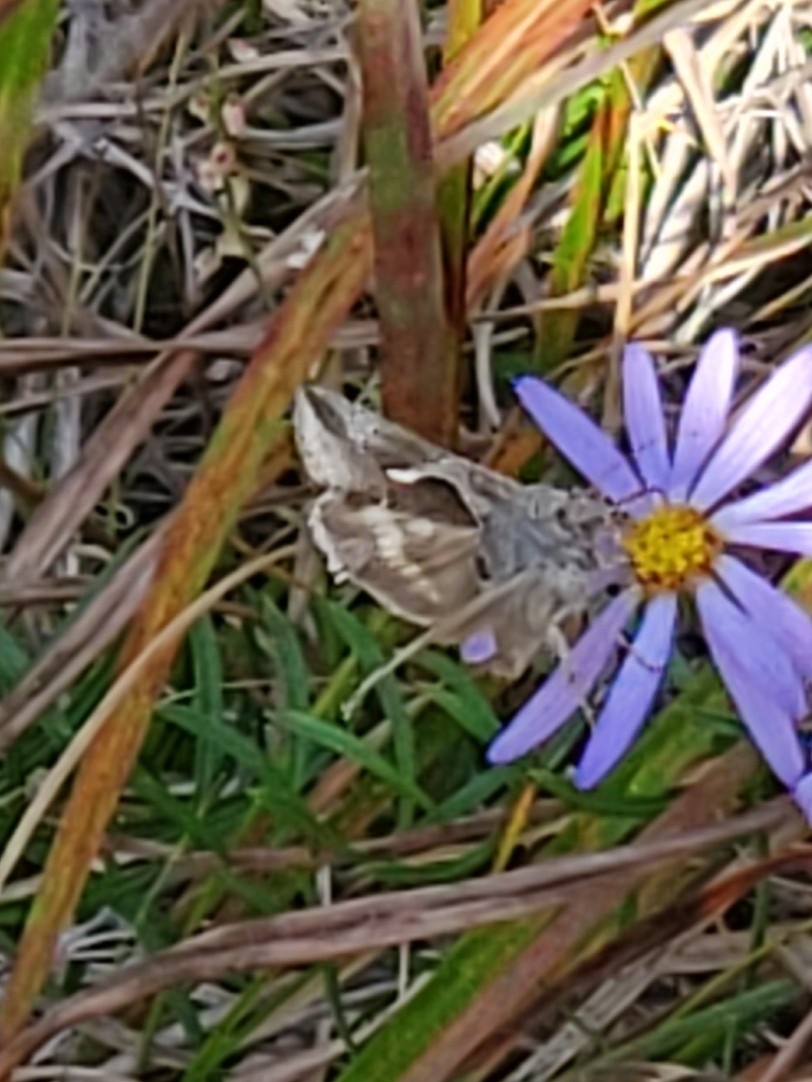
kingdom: Animalia
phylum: Arthropoda
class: Insecta
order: Lepidoptera
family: Noctuidae
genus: Anagrapha
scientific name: Anagrapha falcifera
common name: Celery looper
